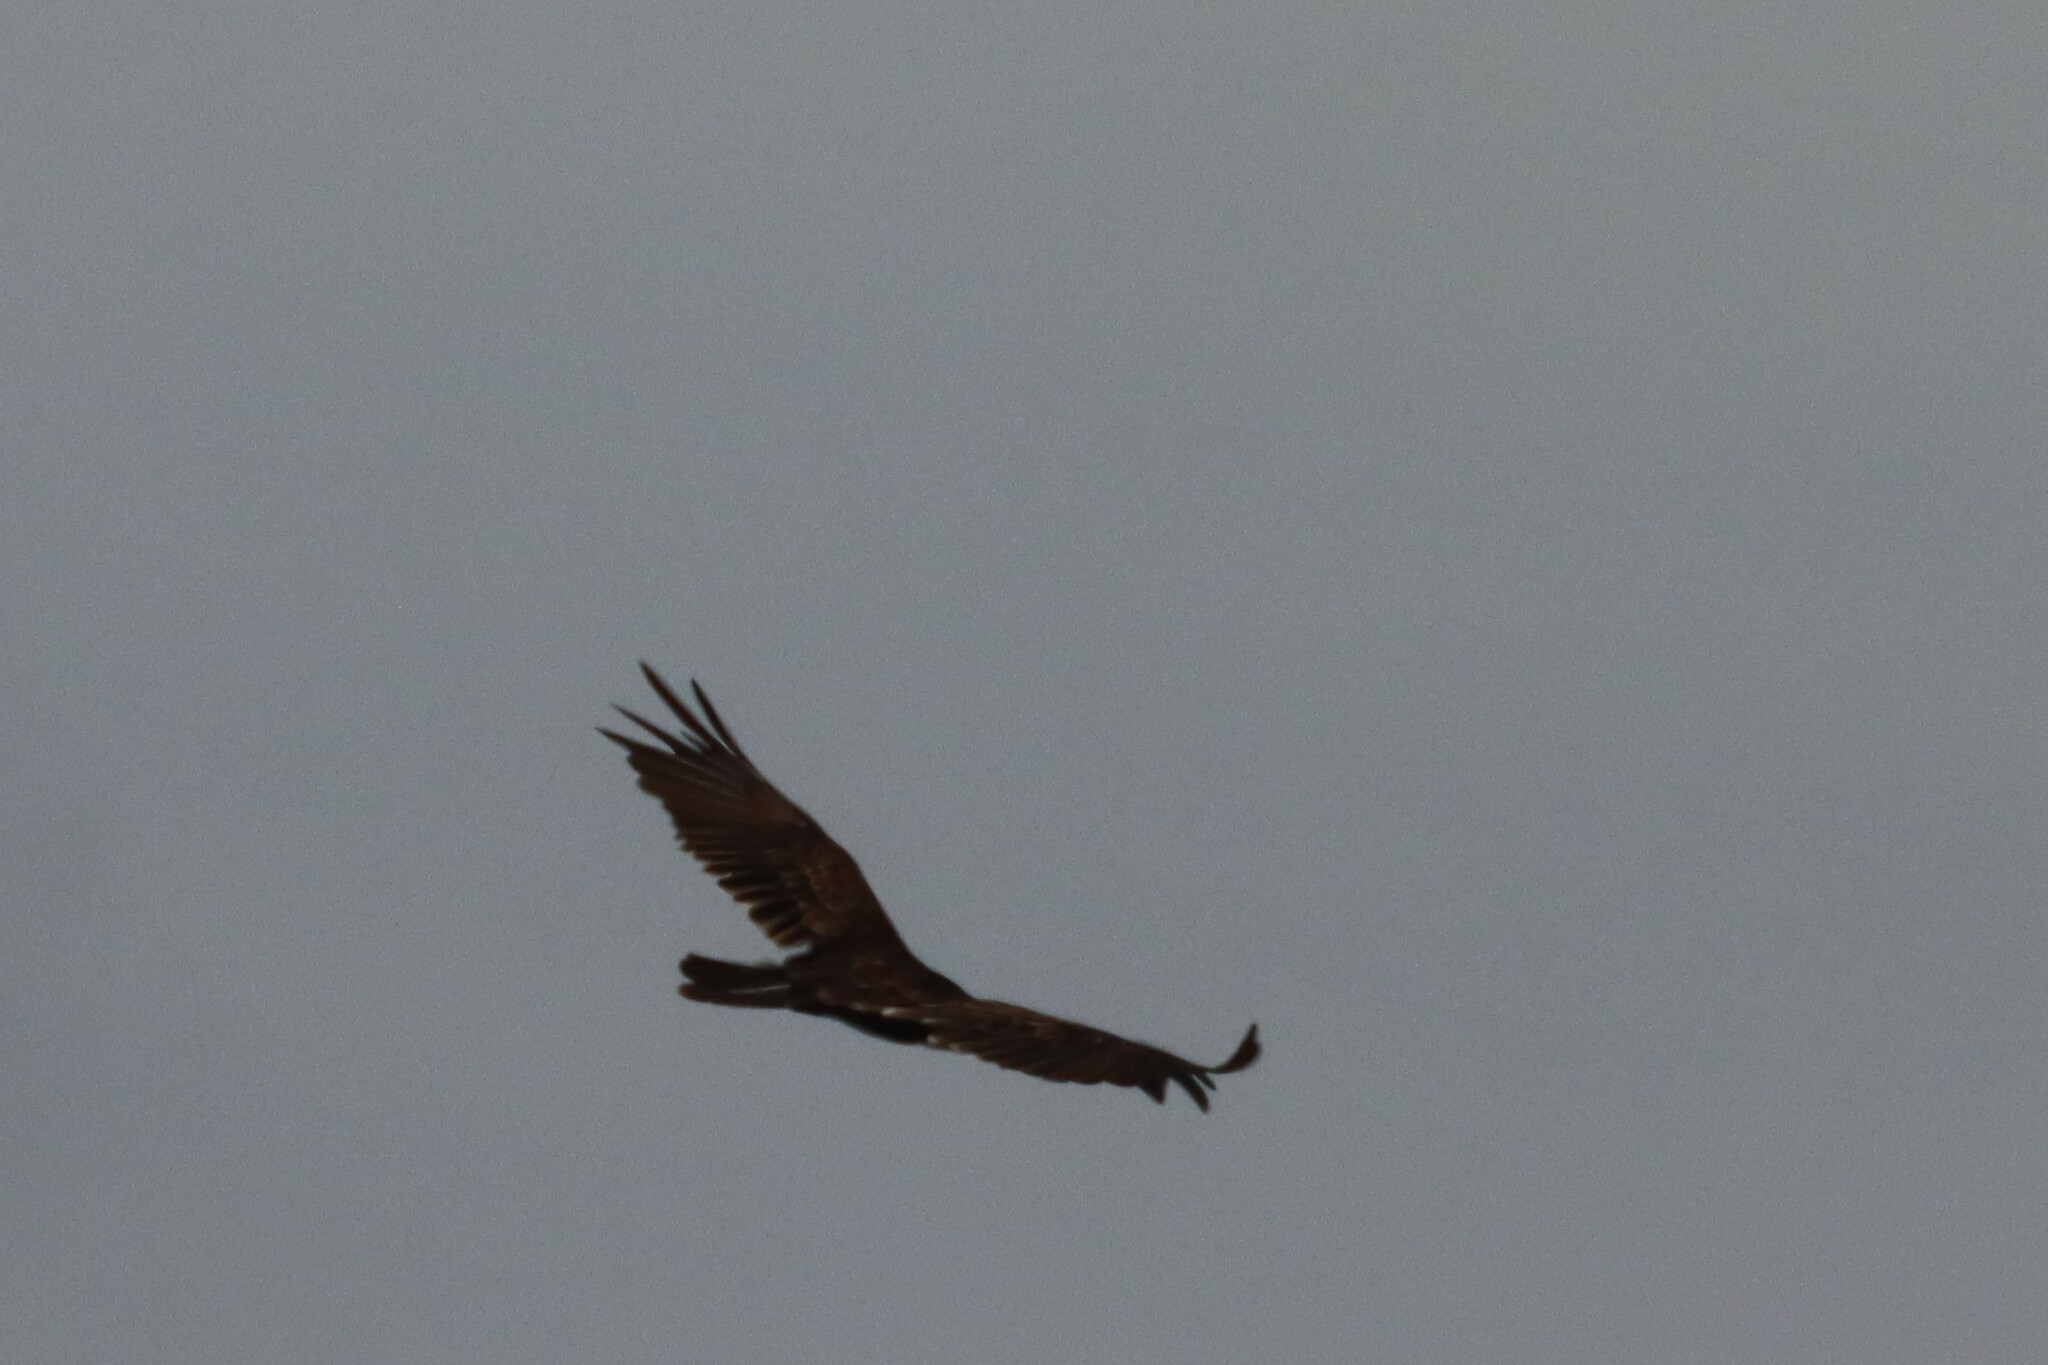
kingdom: Animalia
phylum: Chordata
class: Aves
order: Accipitriformes
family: Cathartidae
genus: Cathartes
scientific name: Cathartes aura
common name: Turkey vulture
